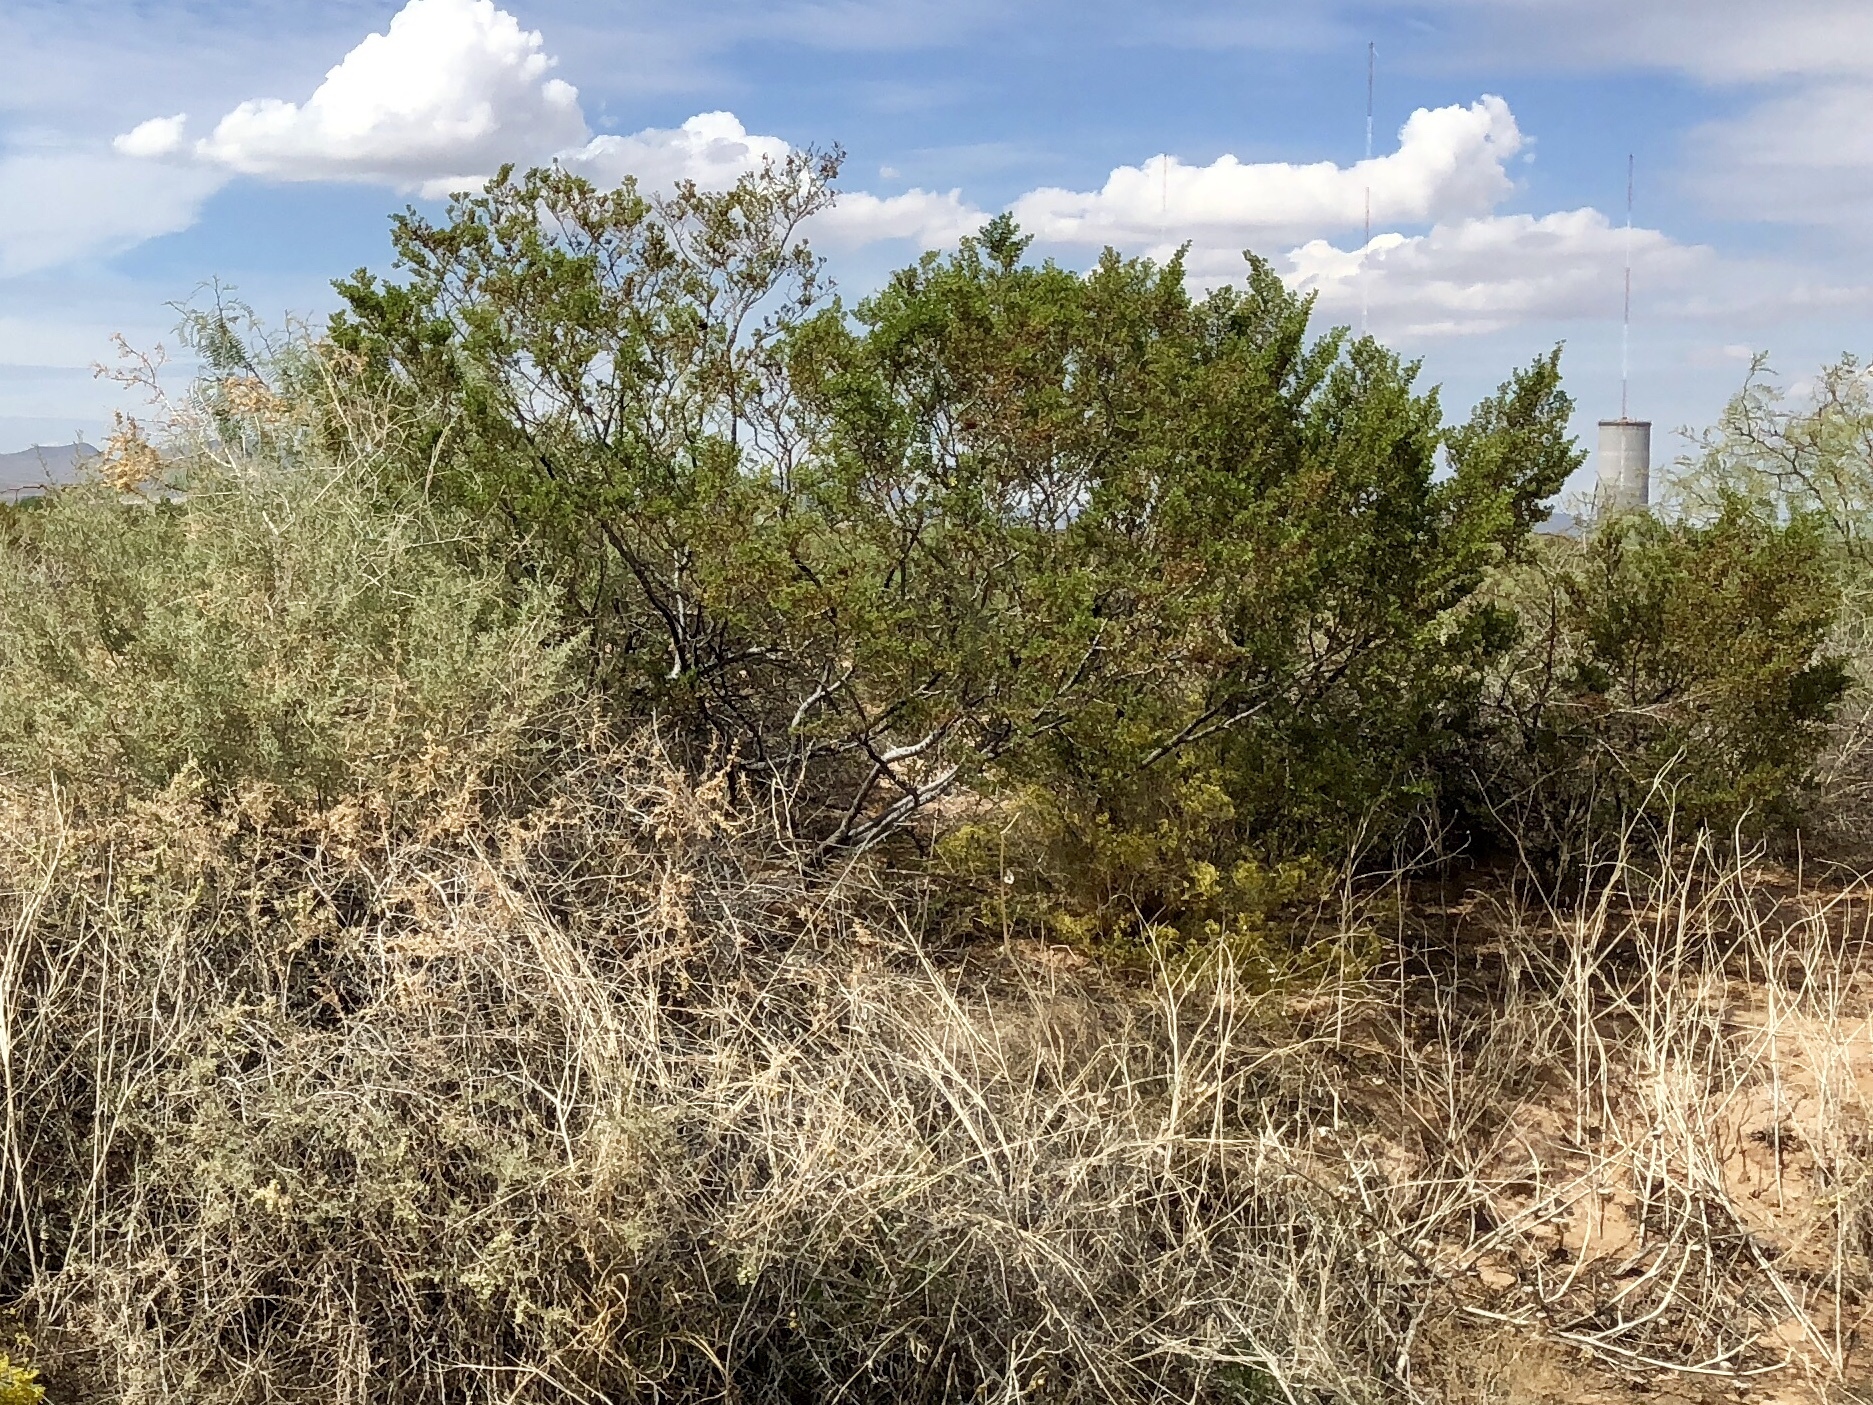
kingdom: Plantae
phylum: Tracheophyta
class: Magnoliopsida
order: Zygophyllales
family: Zygophyllaceae
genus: Larrea
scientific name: Larrea tridentata
